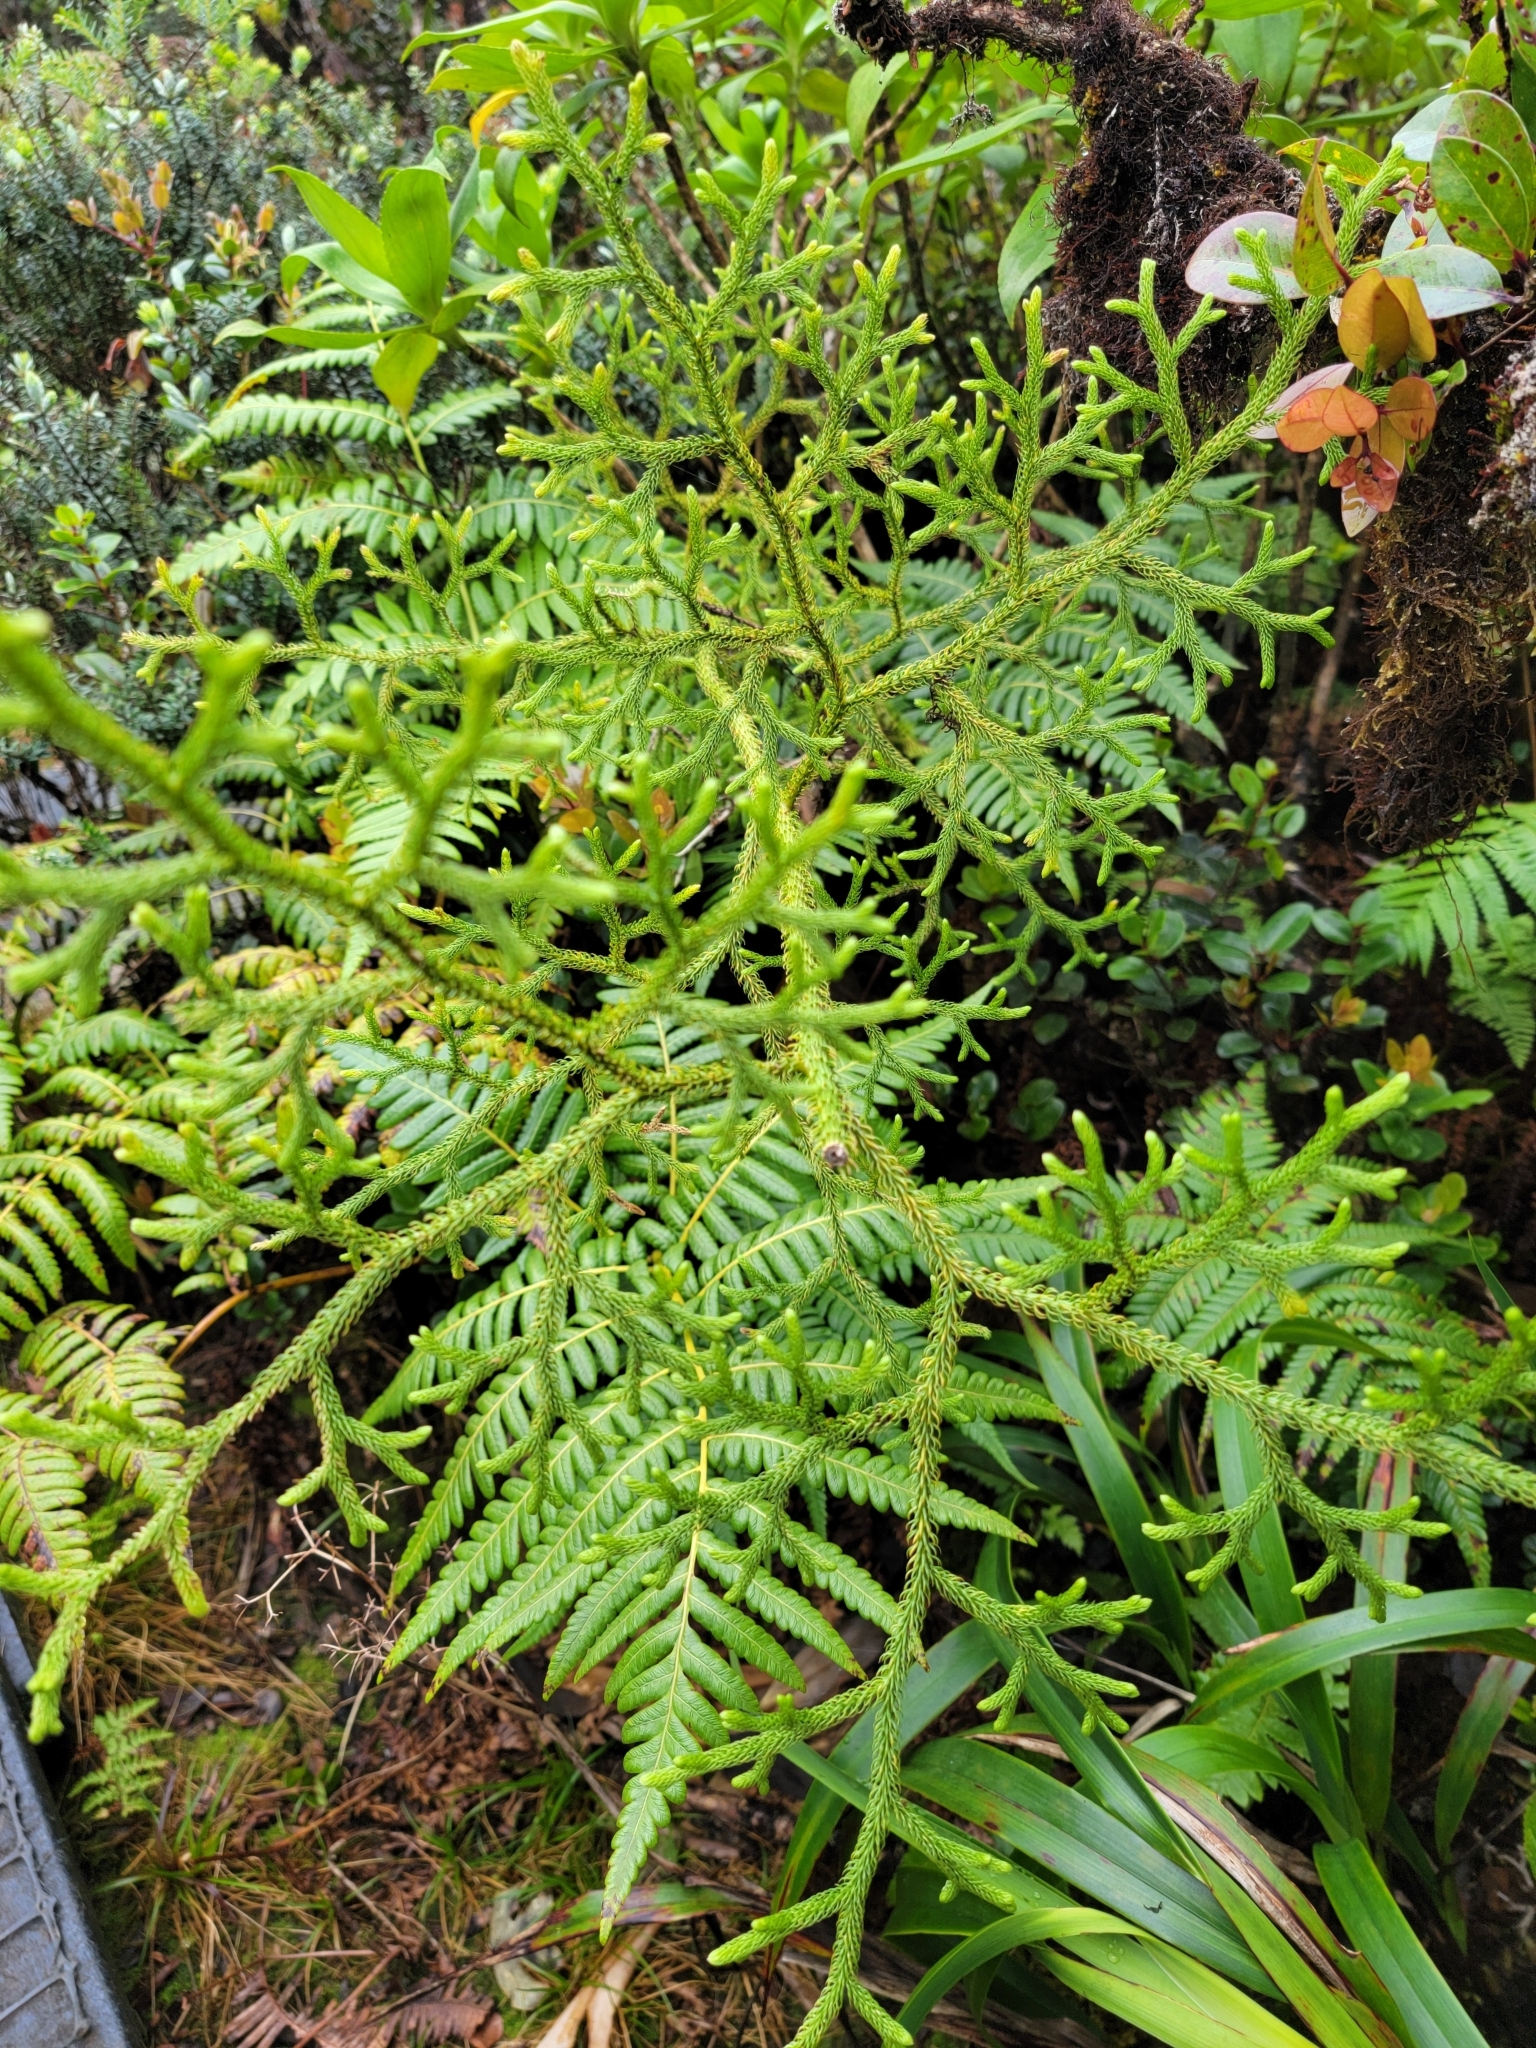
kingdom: Plantae
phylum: Tracheophyta
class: Lycopodiopsida
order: Lycopodiales
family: Lycopodiaceae
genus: Palhinhaea
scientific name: Palhinhaea cernua
